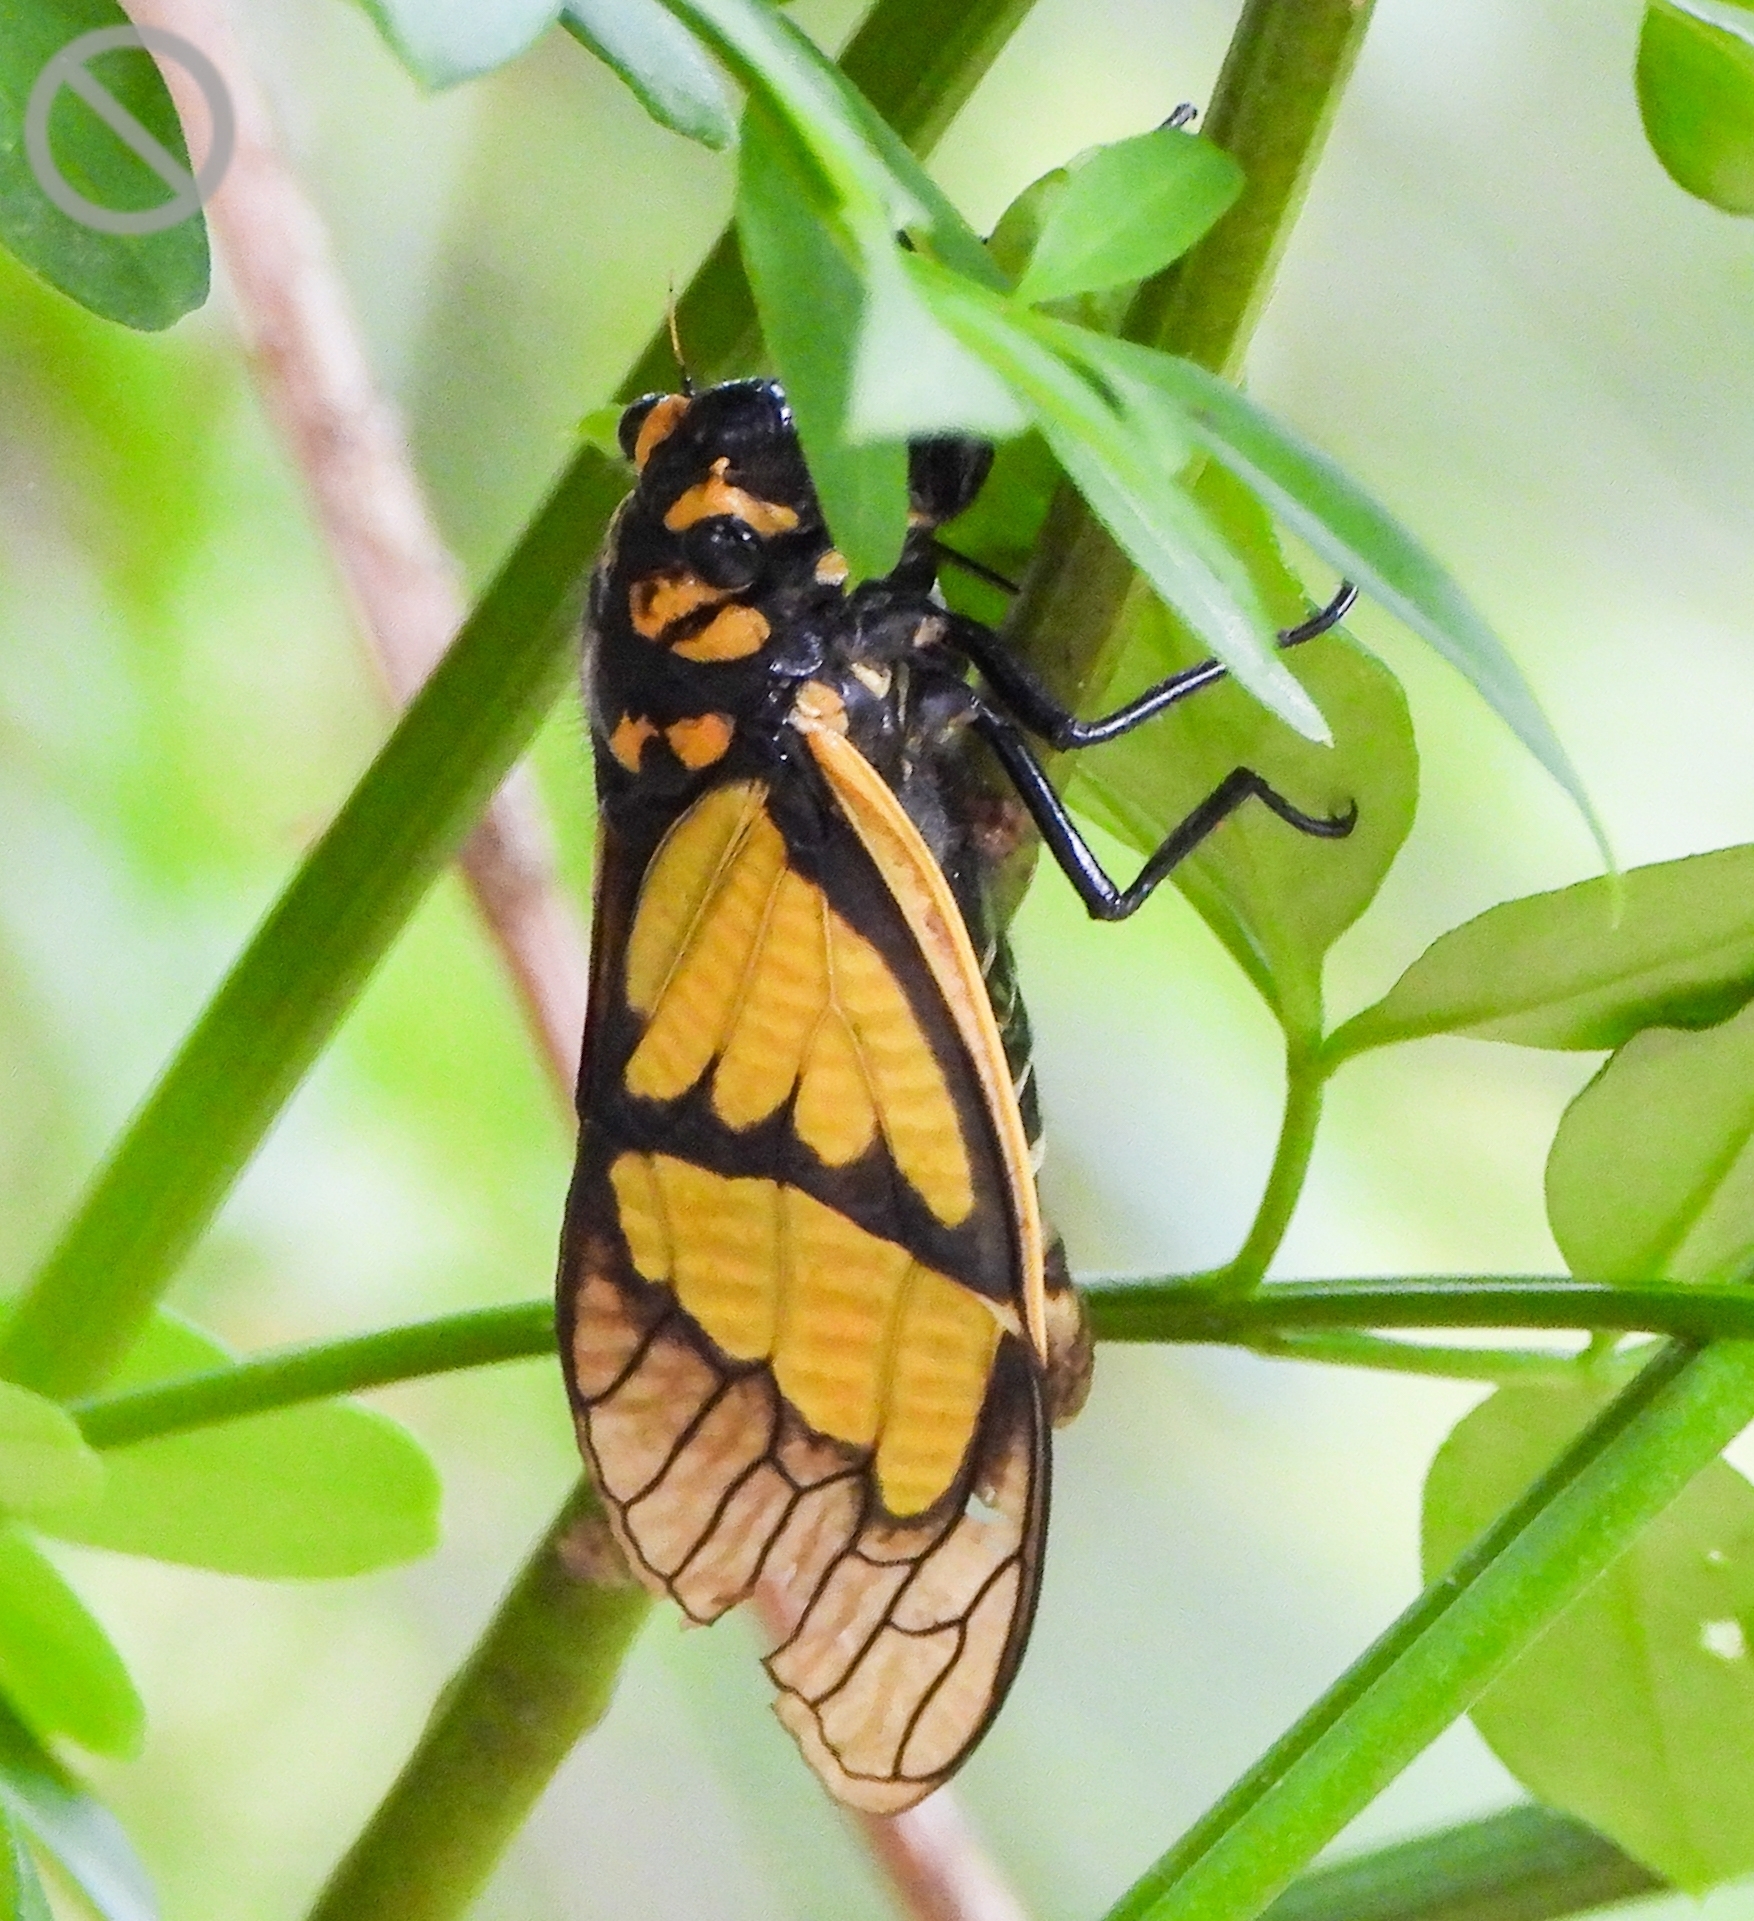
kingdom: Animalia
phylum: Arthropoda
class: Insecta
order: Hemiptera
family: Cicadidae
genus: Sulphogaeana
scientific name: Sulphogaeana sulphurea
